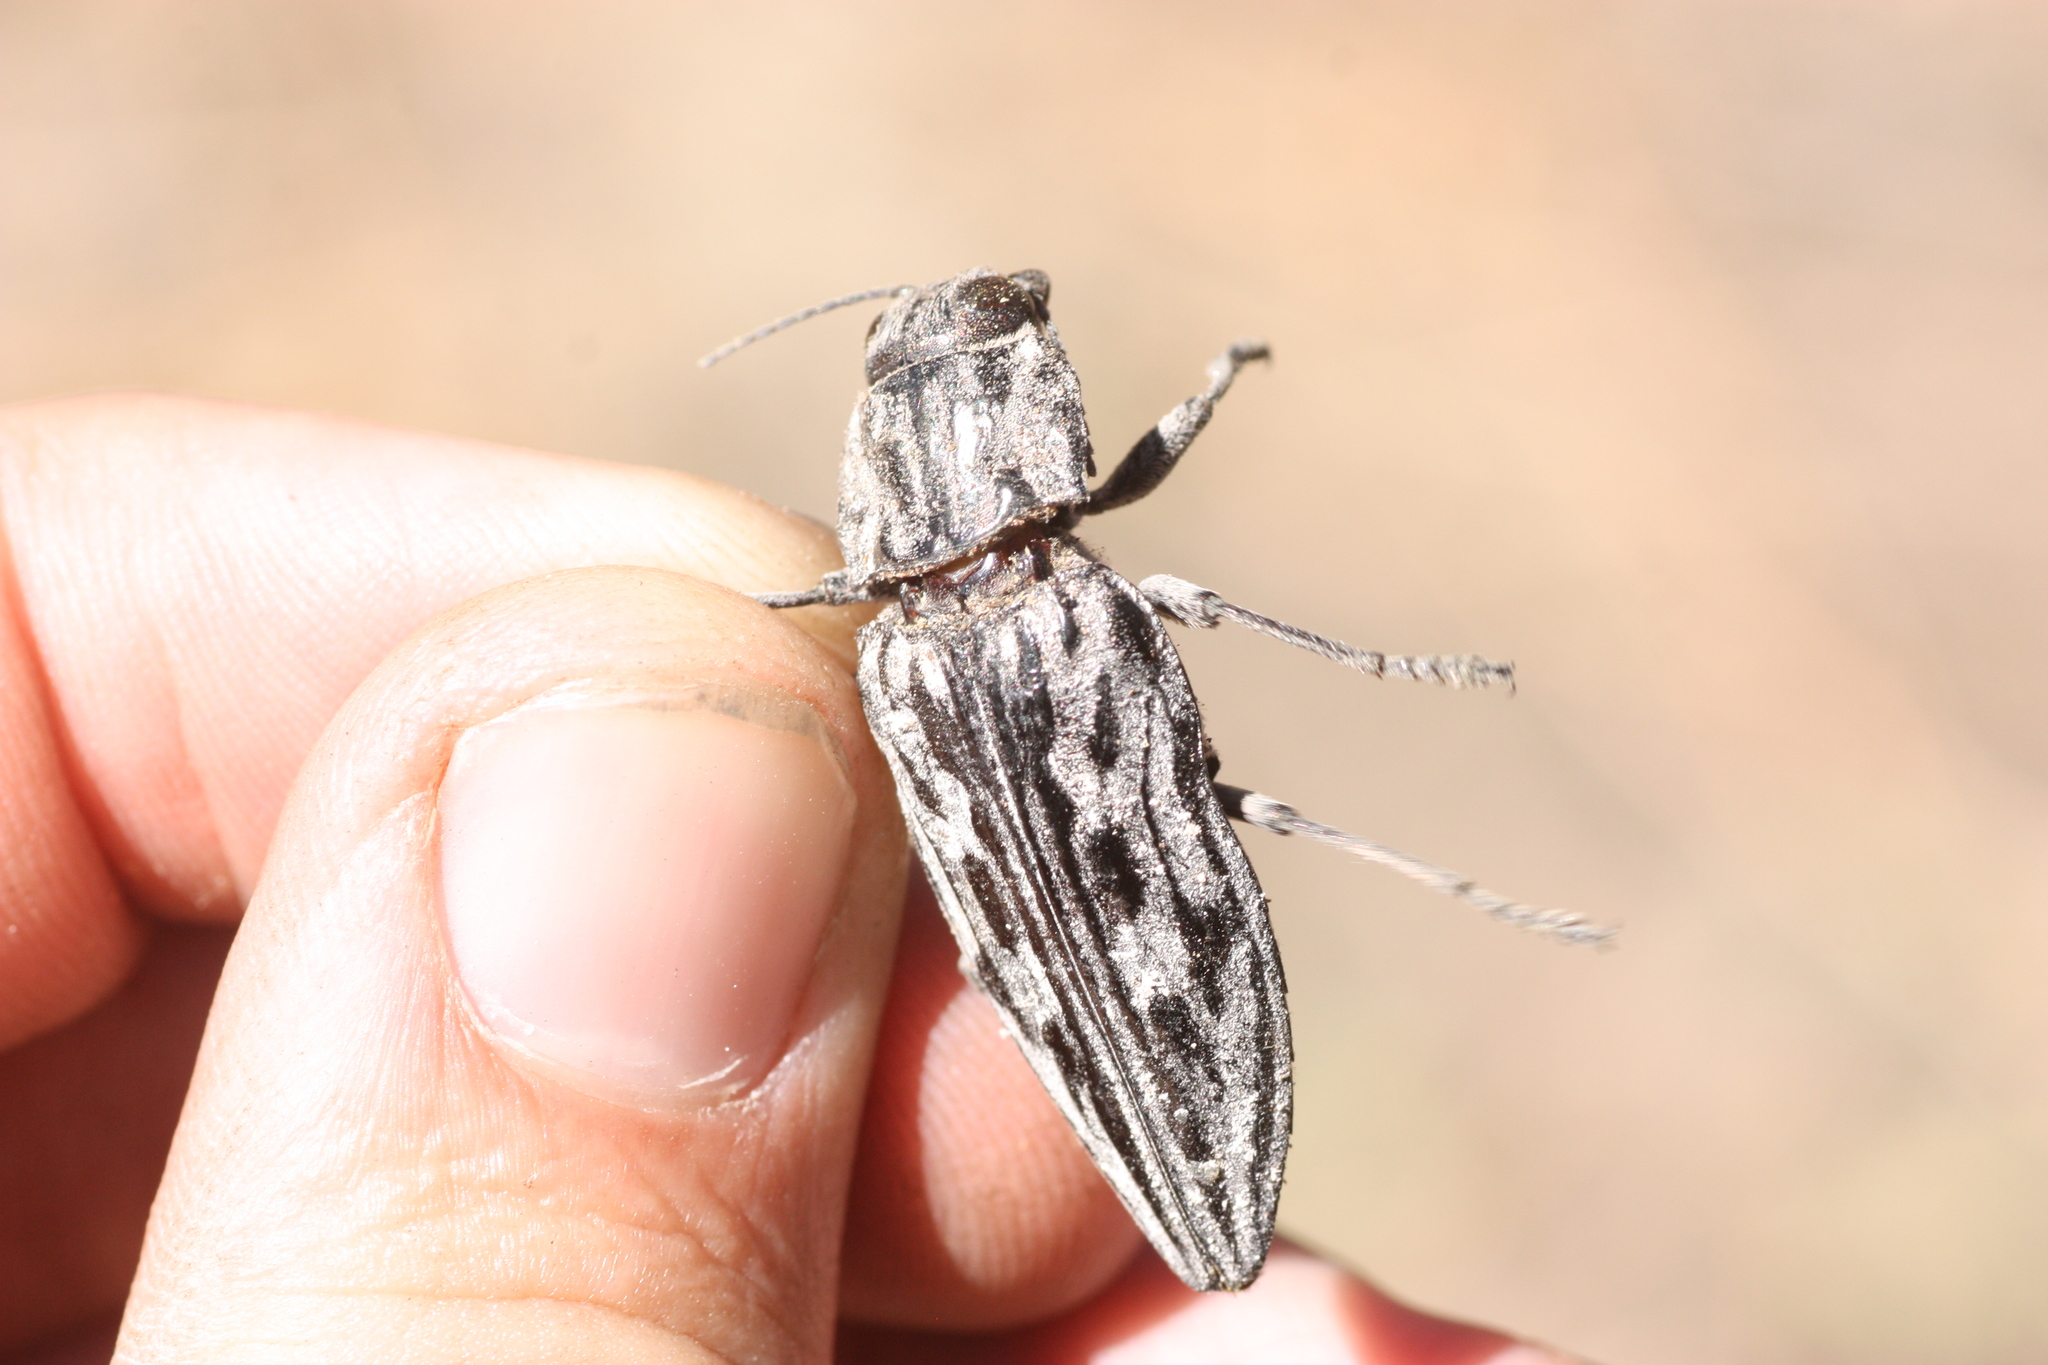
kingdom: Animalia
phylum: Arthropoda
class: Insecta
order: Coleoptera
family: Buprestidae
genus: Chalcophora
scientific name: Chalcophora angulicollis
